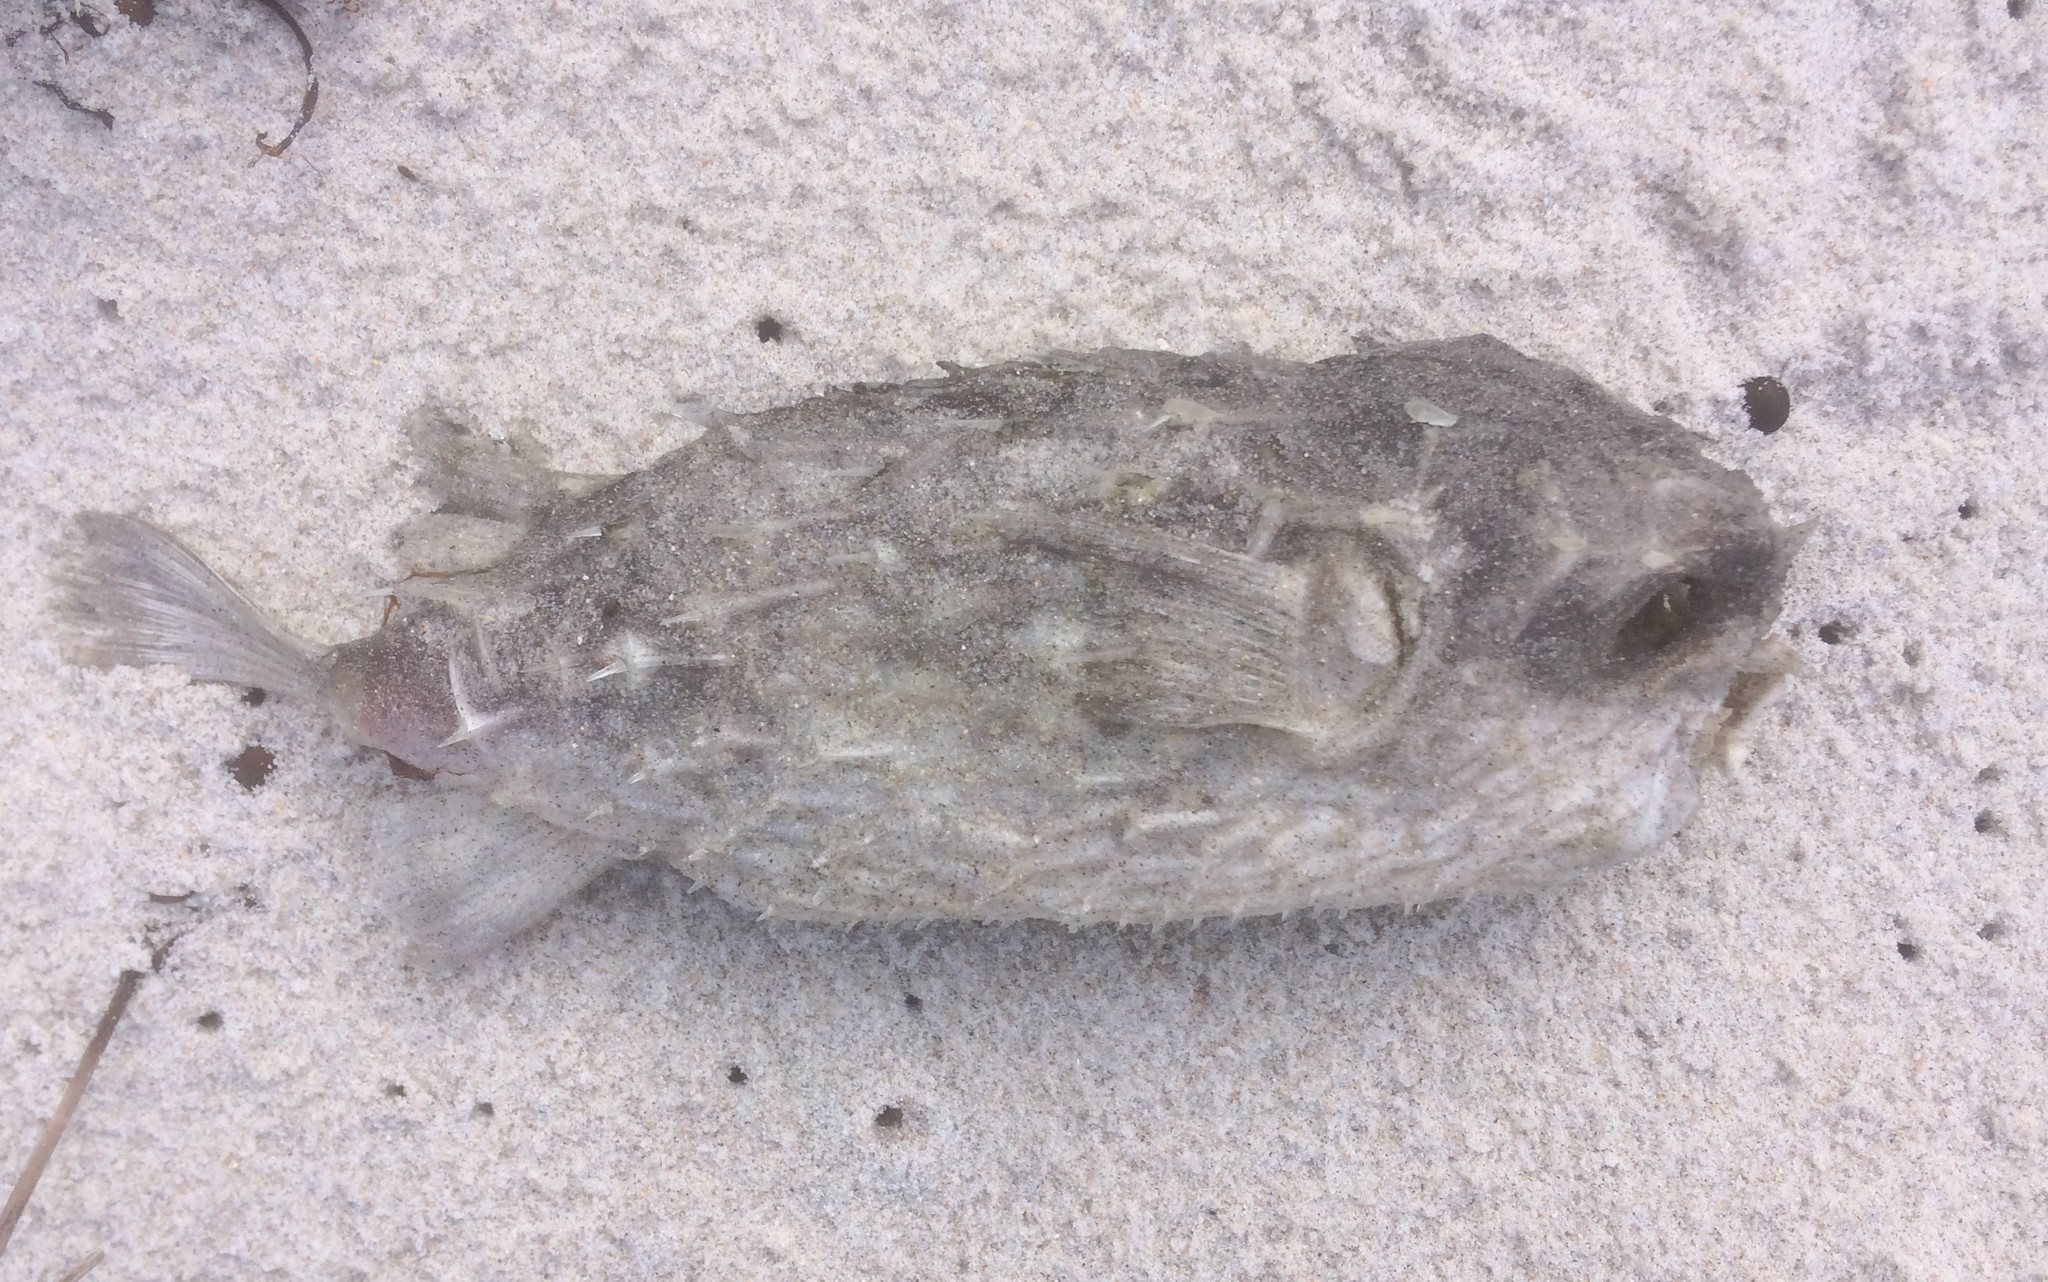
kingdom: Animalia
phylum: Chordata
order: Tetraodontiformes
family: Diodontidae
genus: Allomycterus
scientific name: Allomycterus pilatus
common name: No common name
